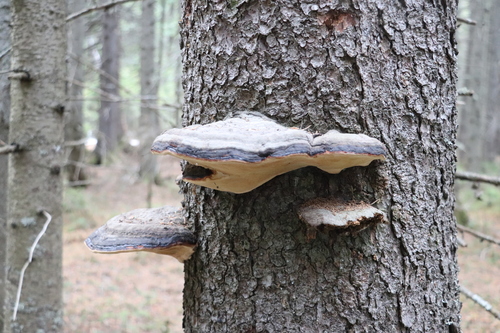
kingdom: Fungi
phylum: Basidiomycota
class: Agaricomycetes
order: Polyporales
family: Fomitopsidaceae
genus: Fomitopsis
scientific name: Fomitopsis pinicola
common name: Red-belted bracket
